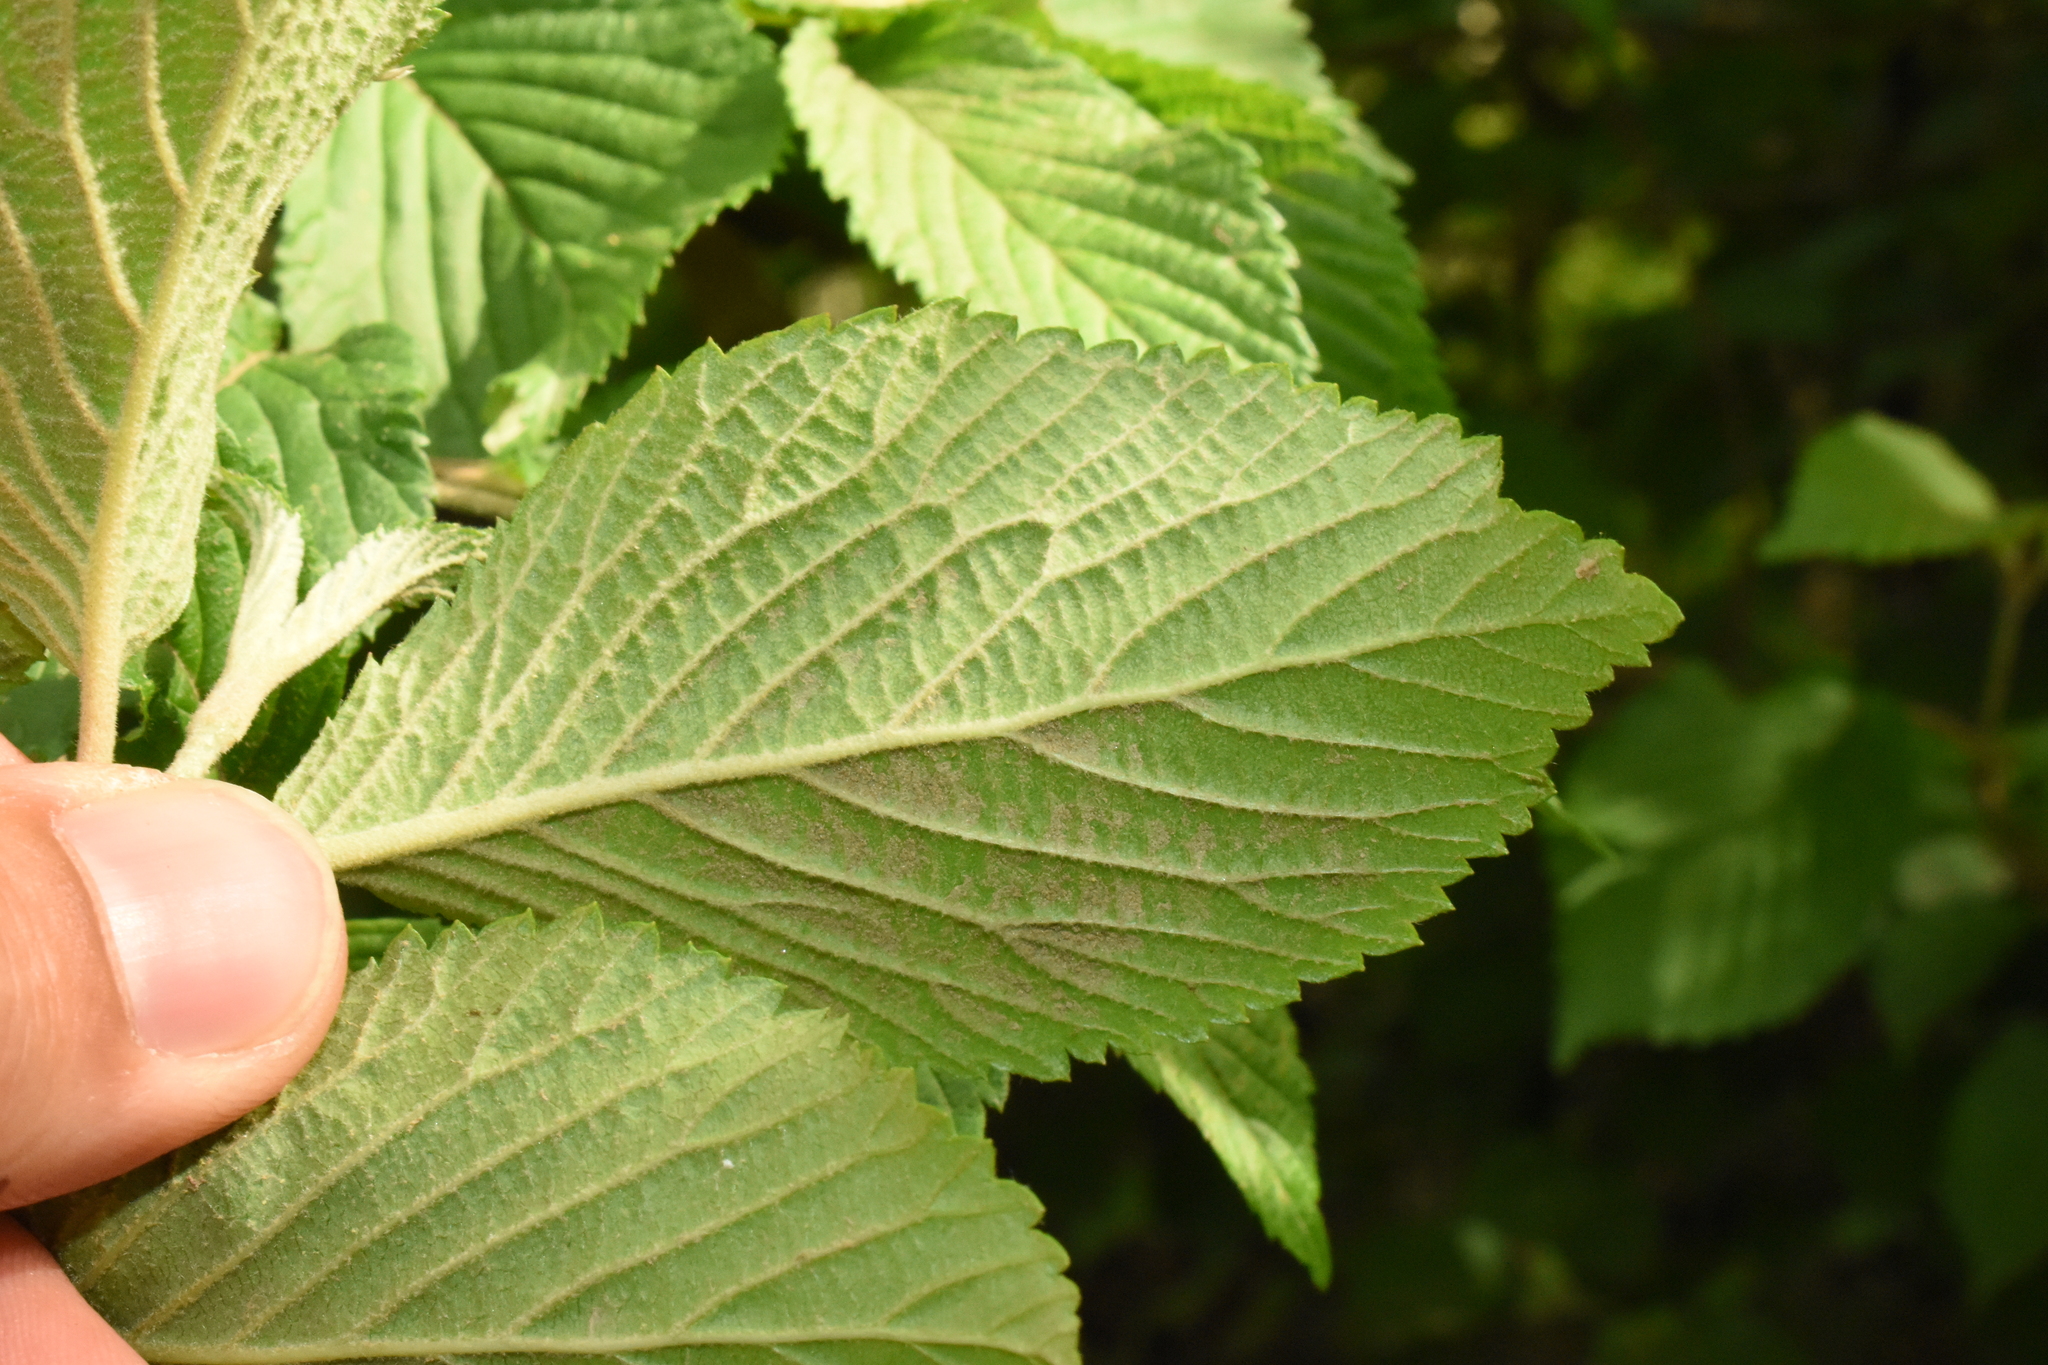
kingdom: Plantae
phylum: Tracheophyta
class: Magnoliopsida
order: Dipsacales
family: Viburnaceae
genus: Viburnum
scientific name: Viburnum plicatum
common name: Japanese snowball
